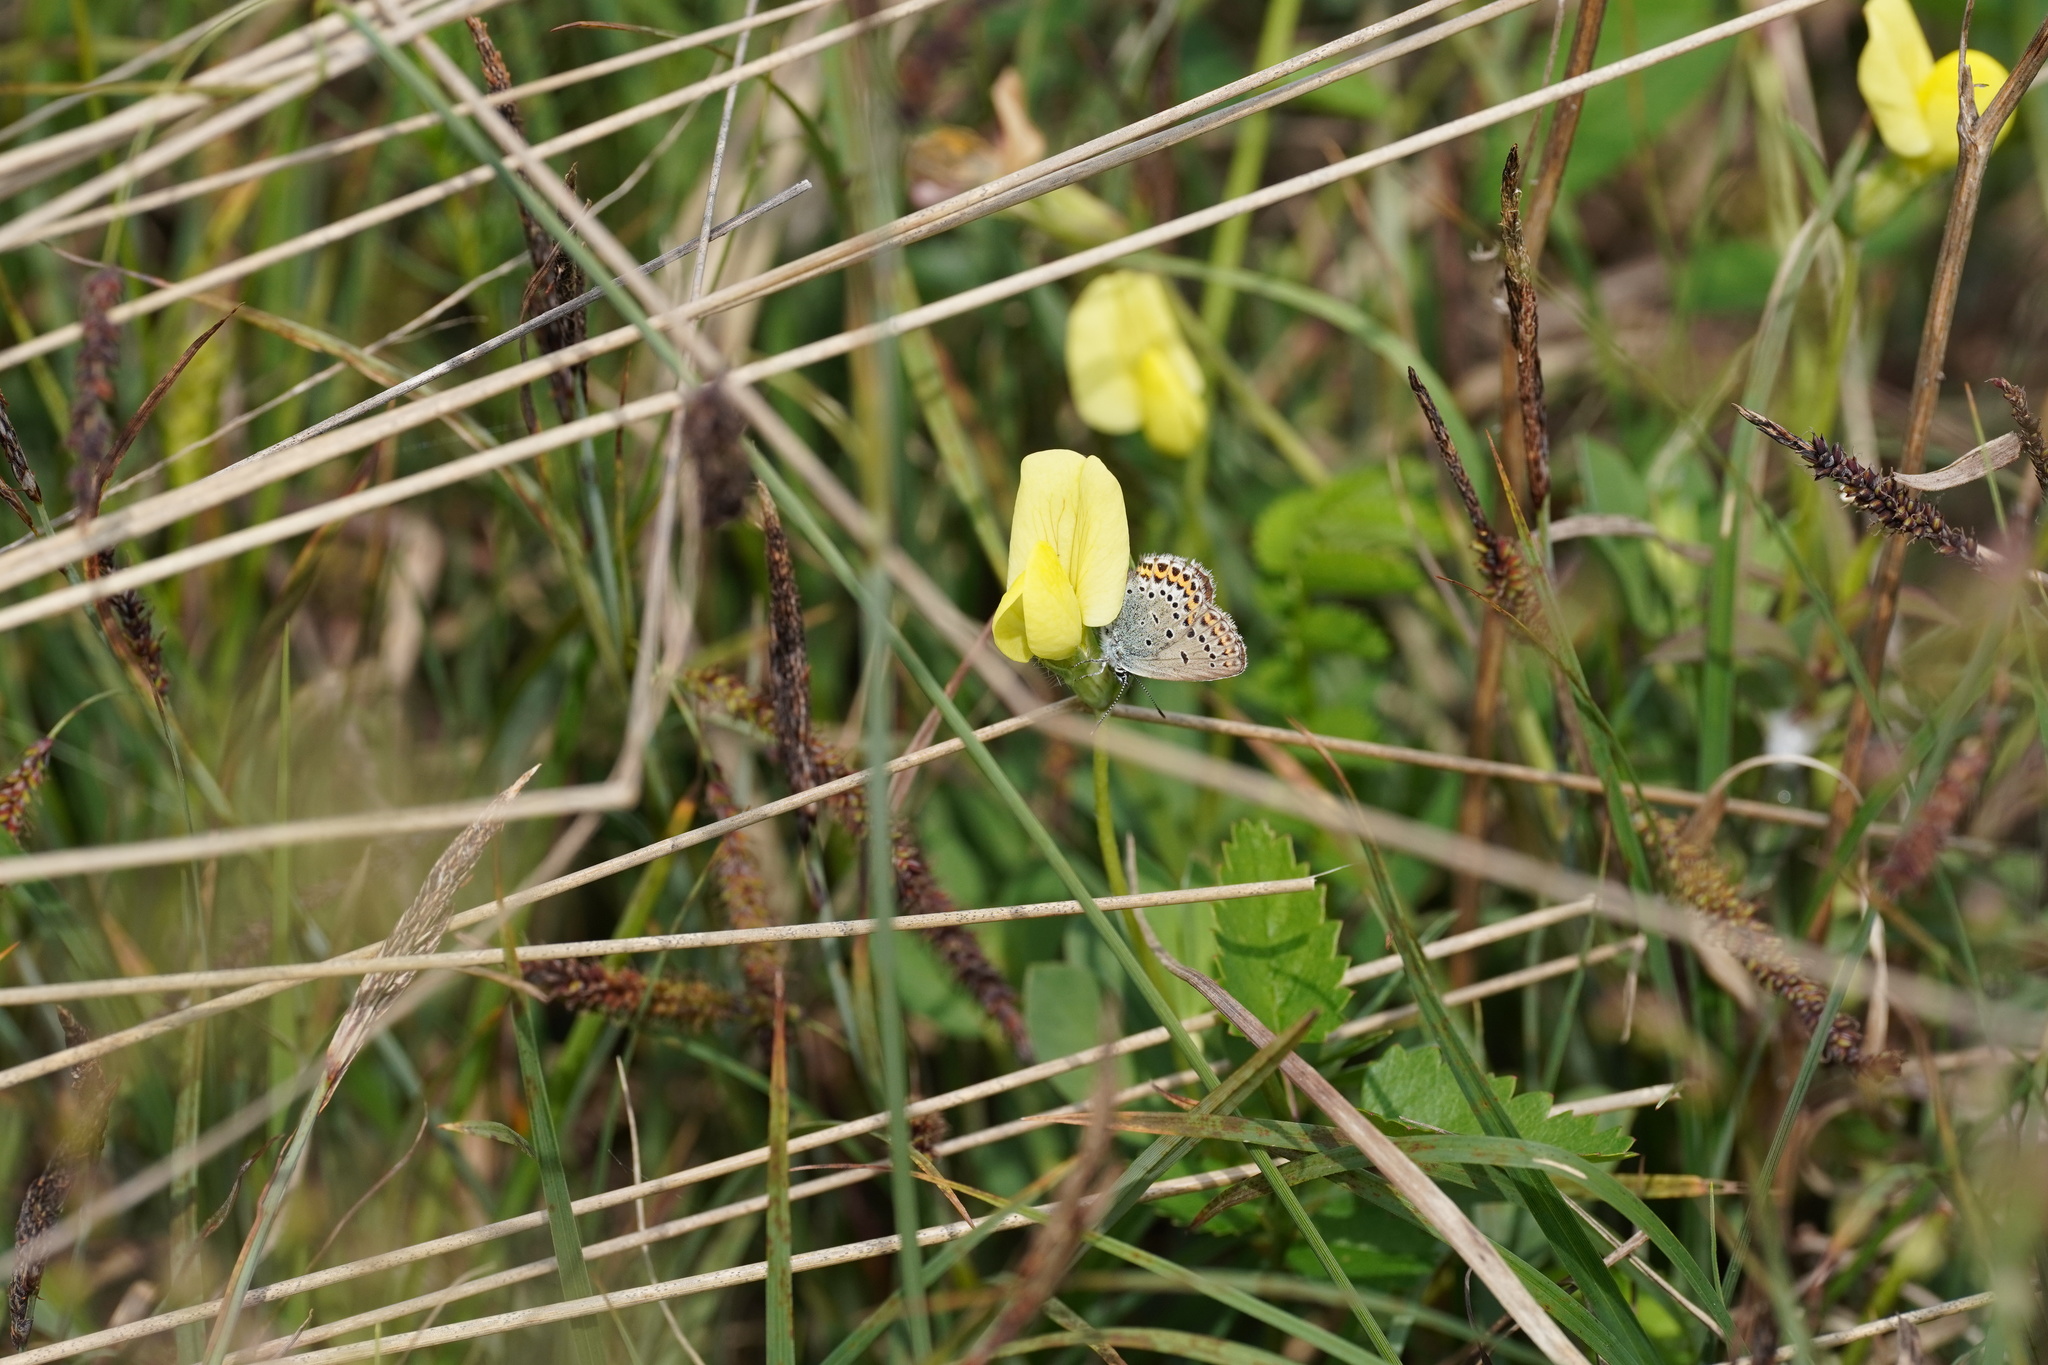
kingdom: Animalia
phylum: Arthropoda
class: Insecta
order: Lepidoptera
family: Lycaenidae
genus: Lycaeides
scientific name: Lycaeides idas
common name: Northern blue
